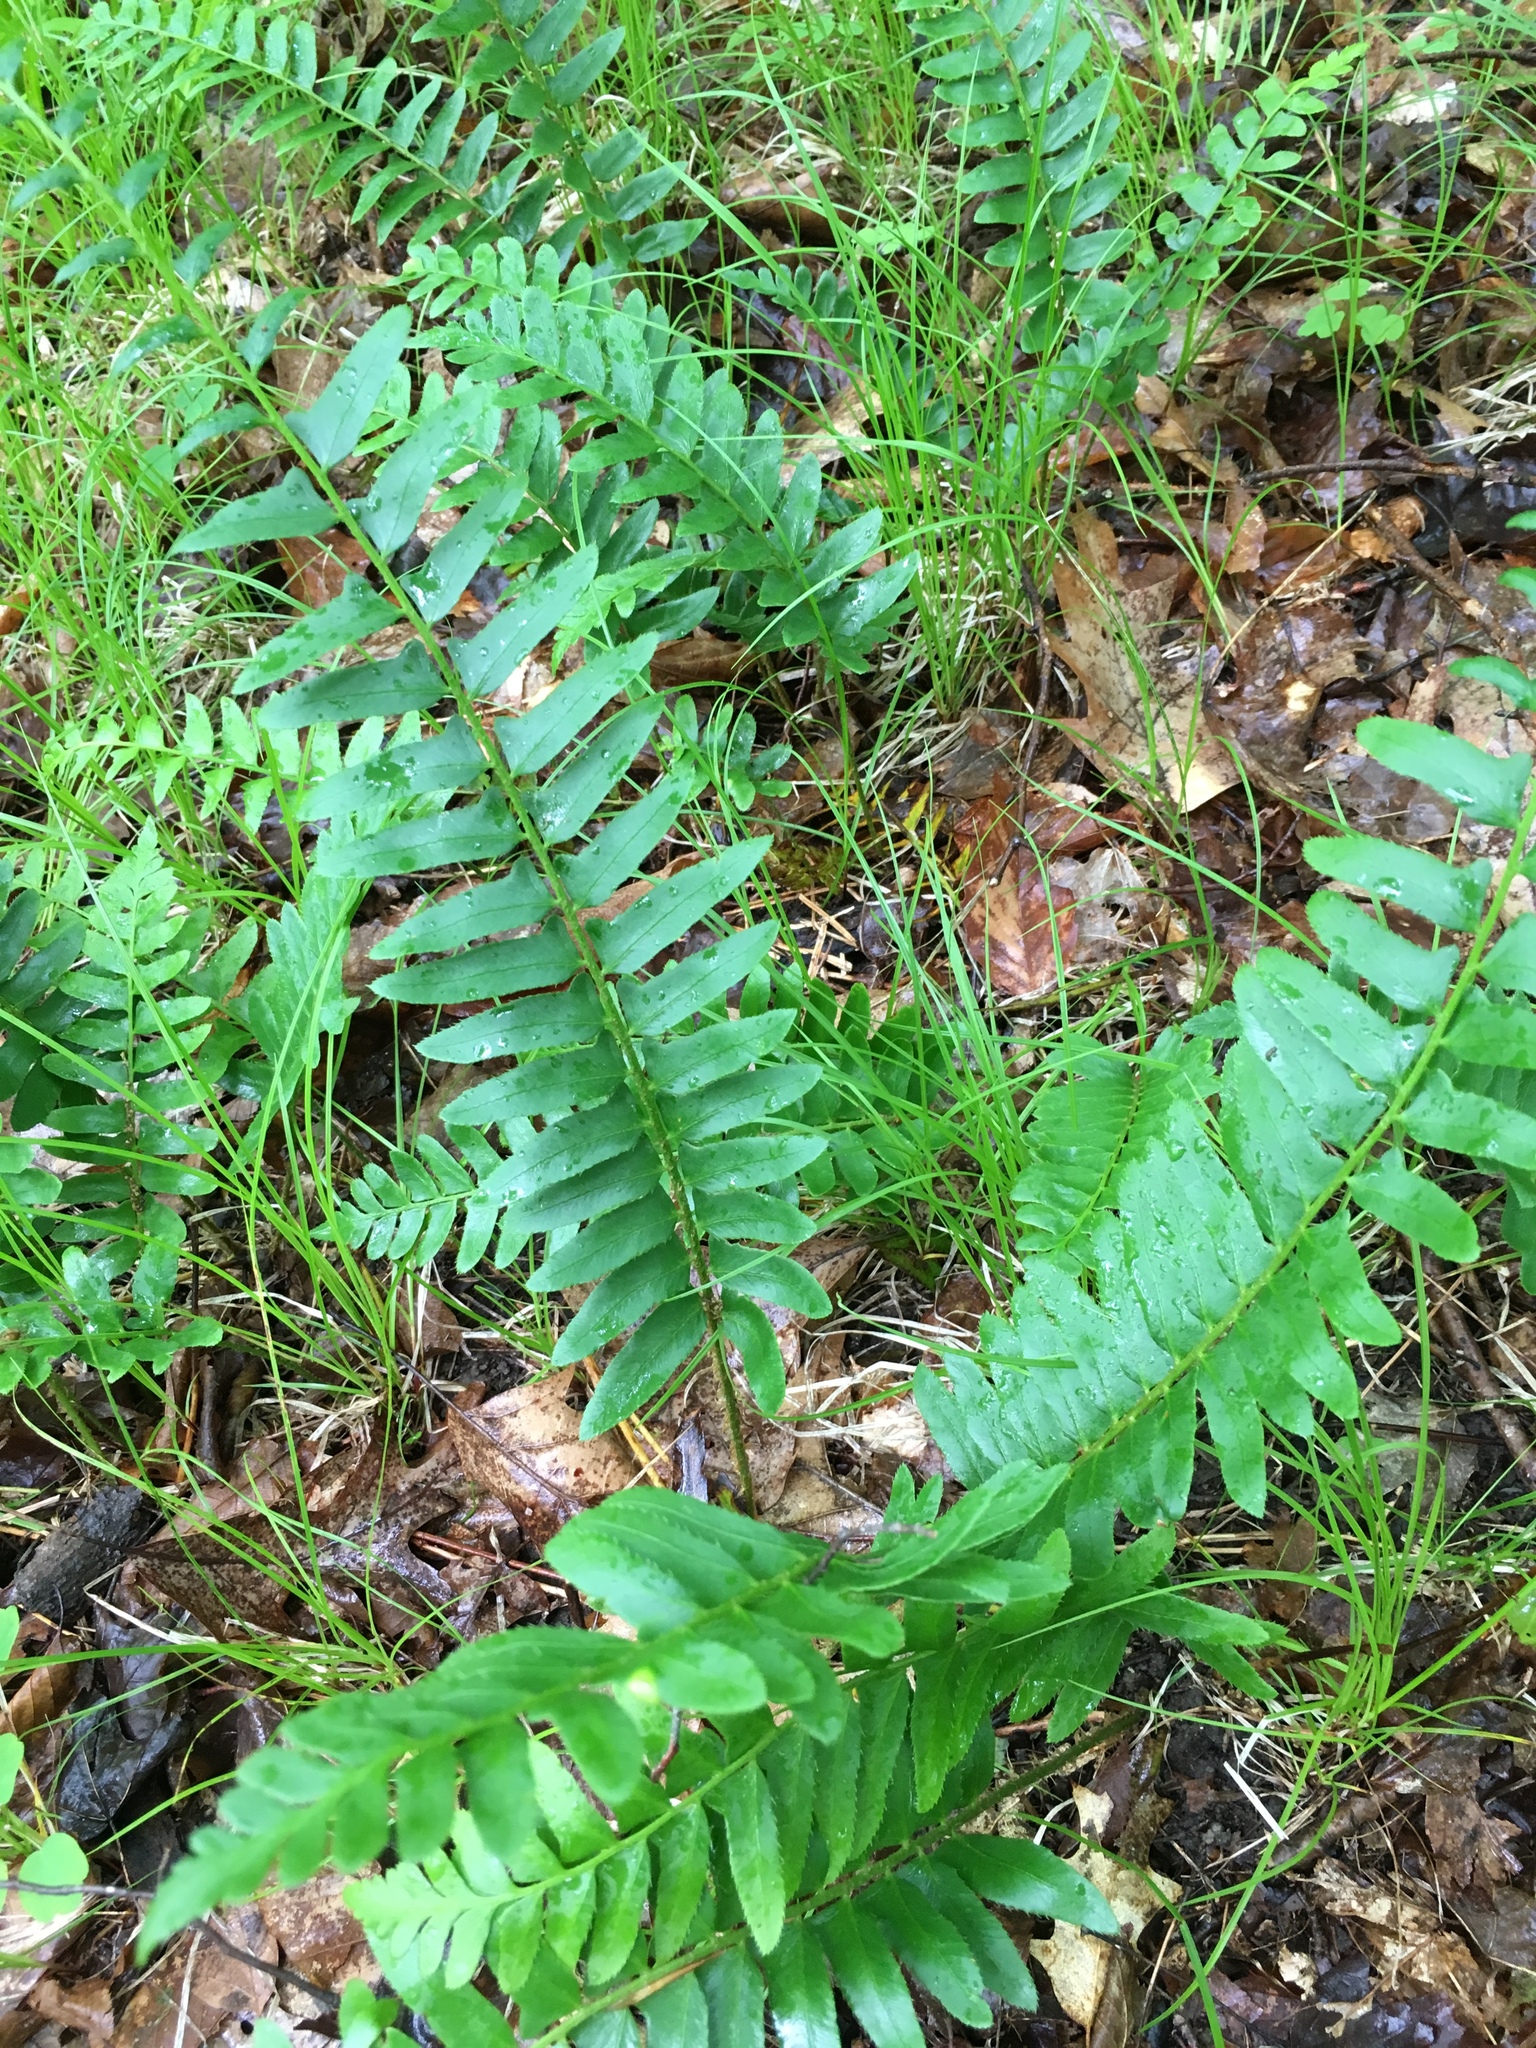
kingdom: Plantae
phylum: Tracheophyta
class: Polypodiopsida
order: Polypodiales
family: Dryopteridaceae
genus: Polystichum
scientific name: Polystichum acrostichoides
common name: Christmas fern
